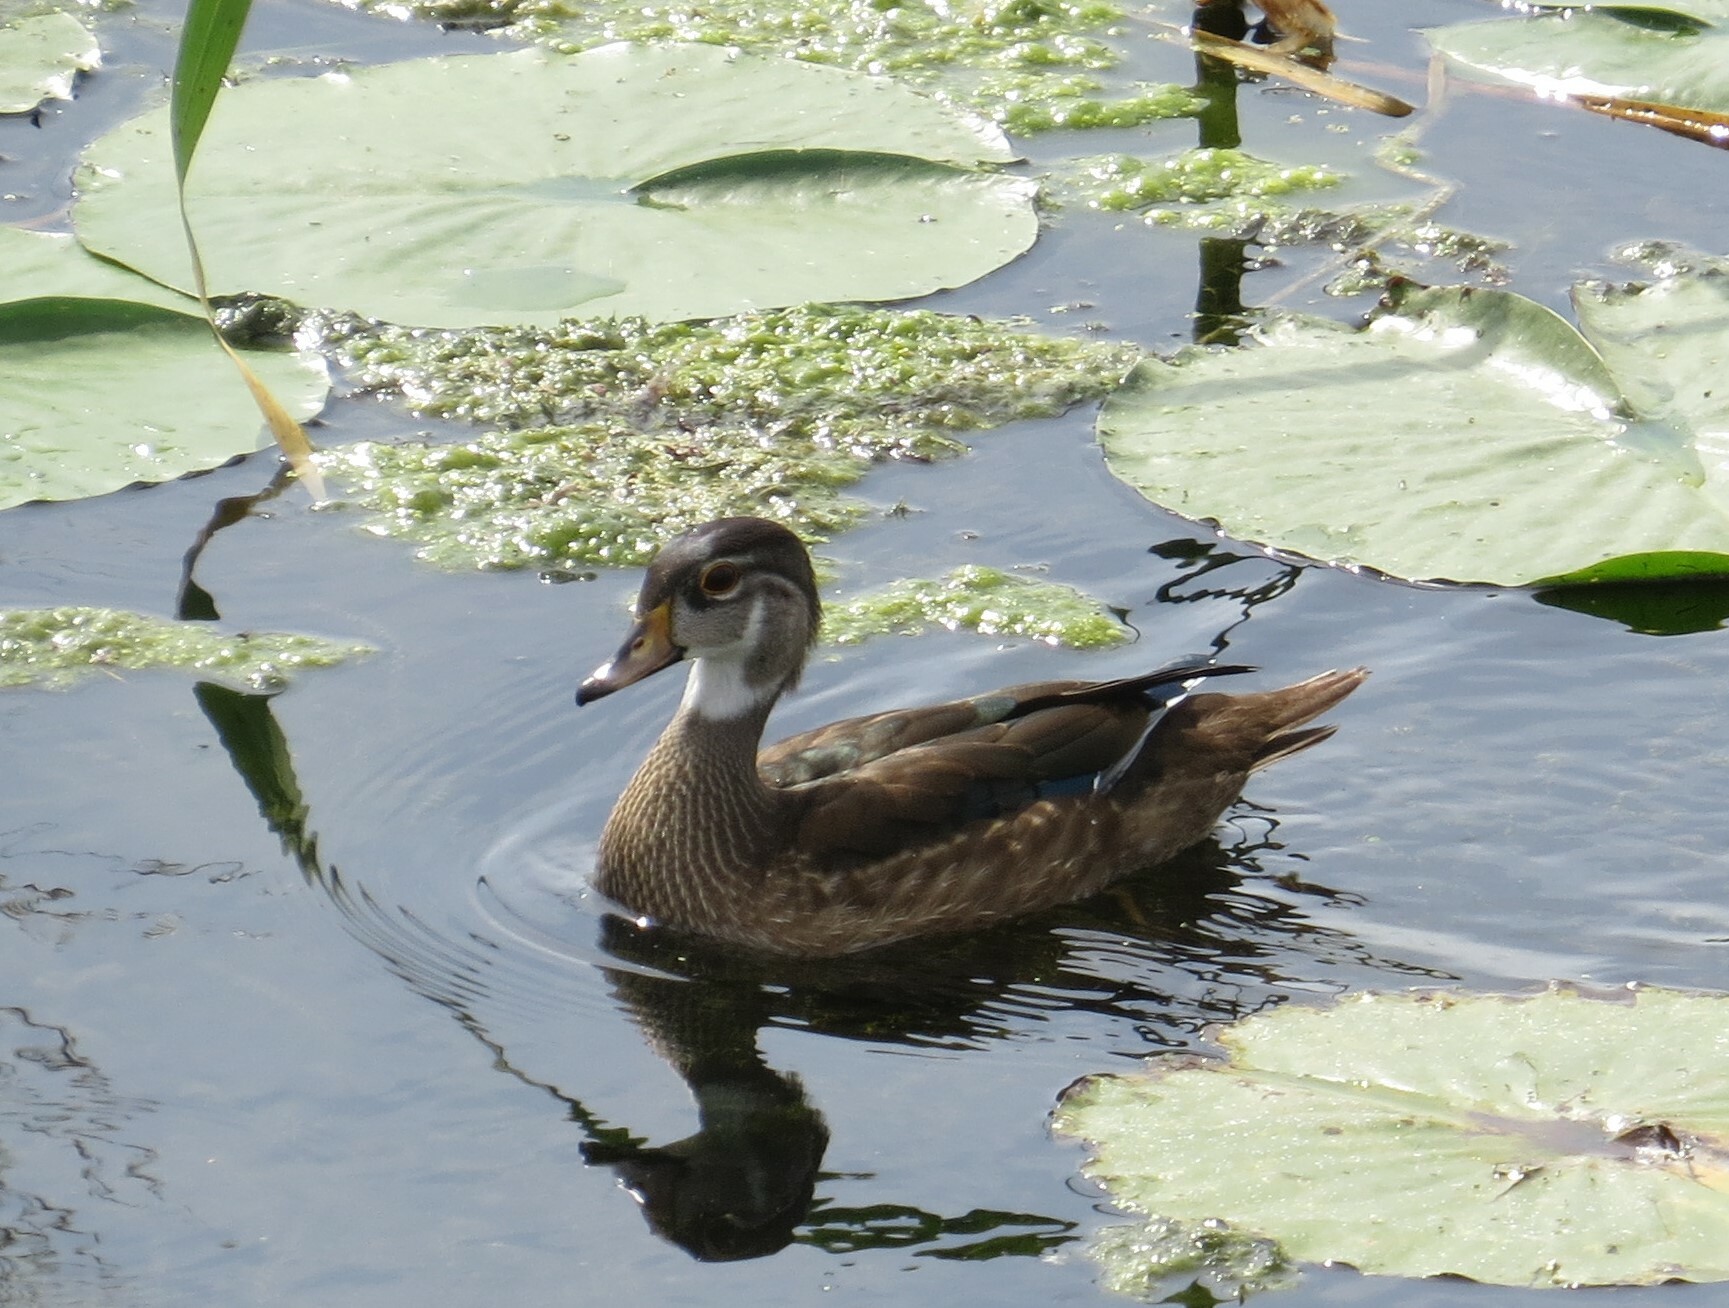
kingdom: Animalia
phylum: Chordata
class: Aves
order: Anseriformes
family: Anatidae
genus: Aix
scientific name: Aix sponsa
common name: Wood duck
